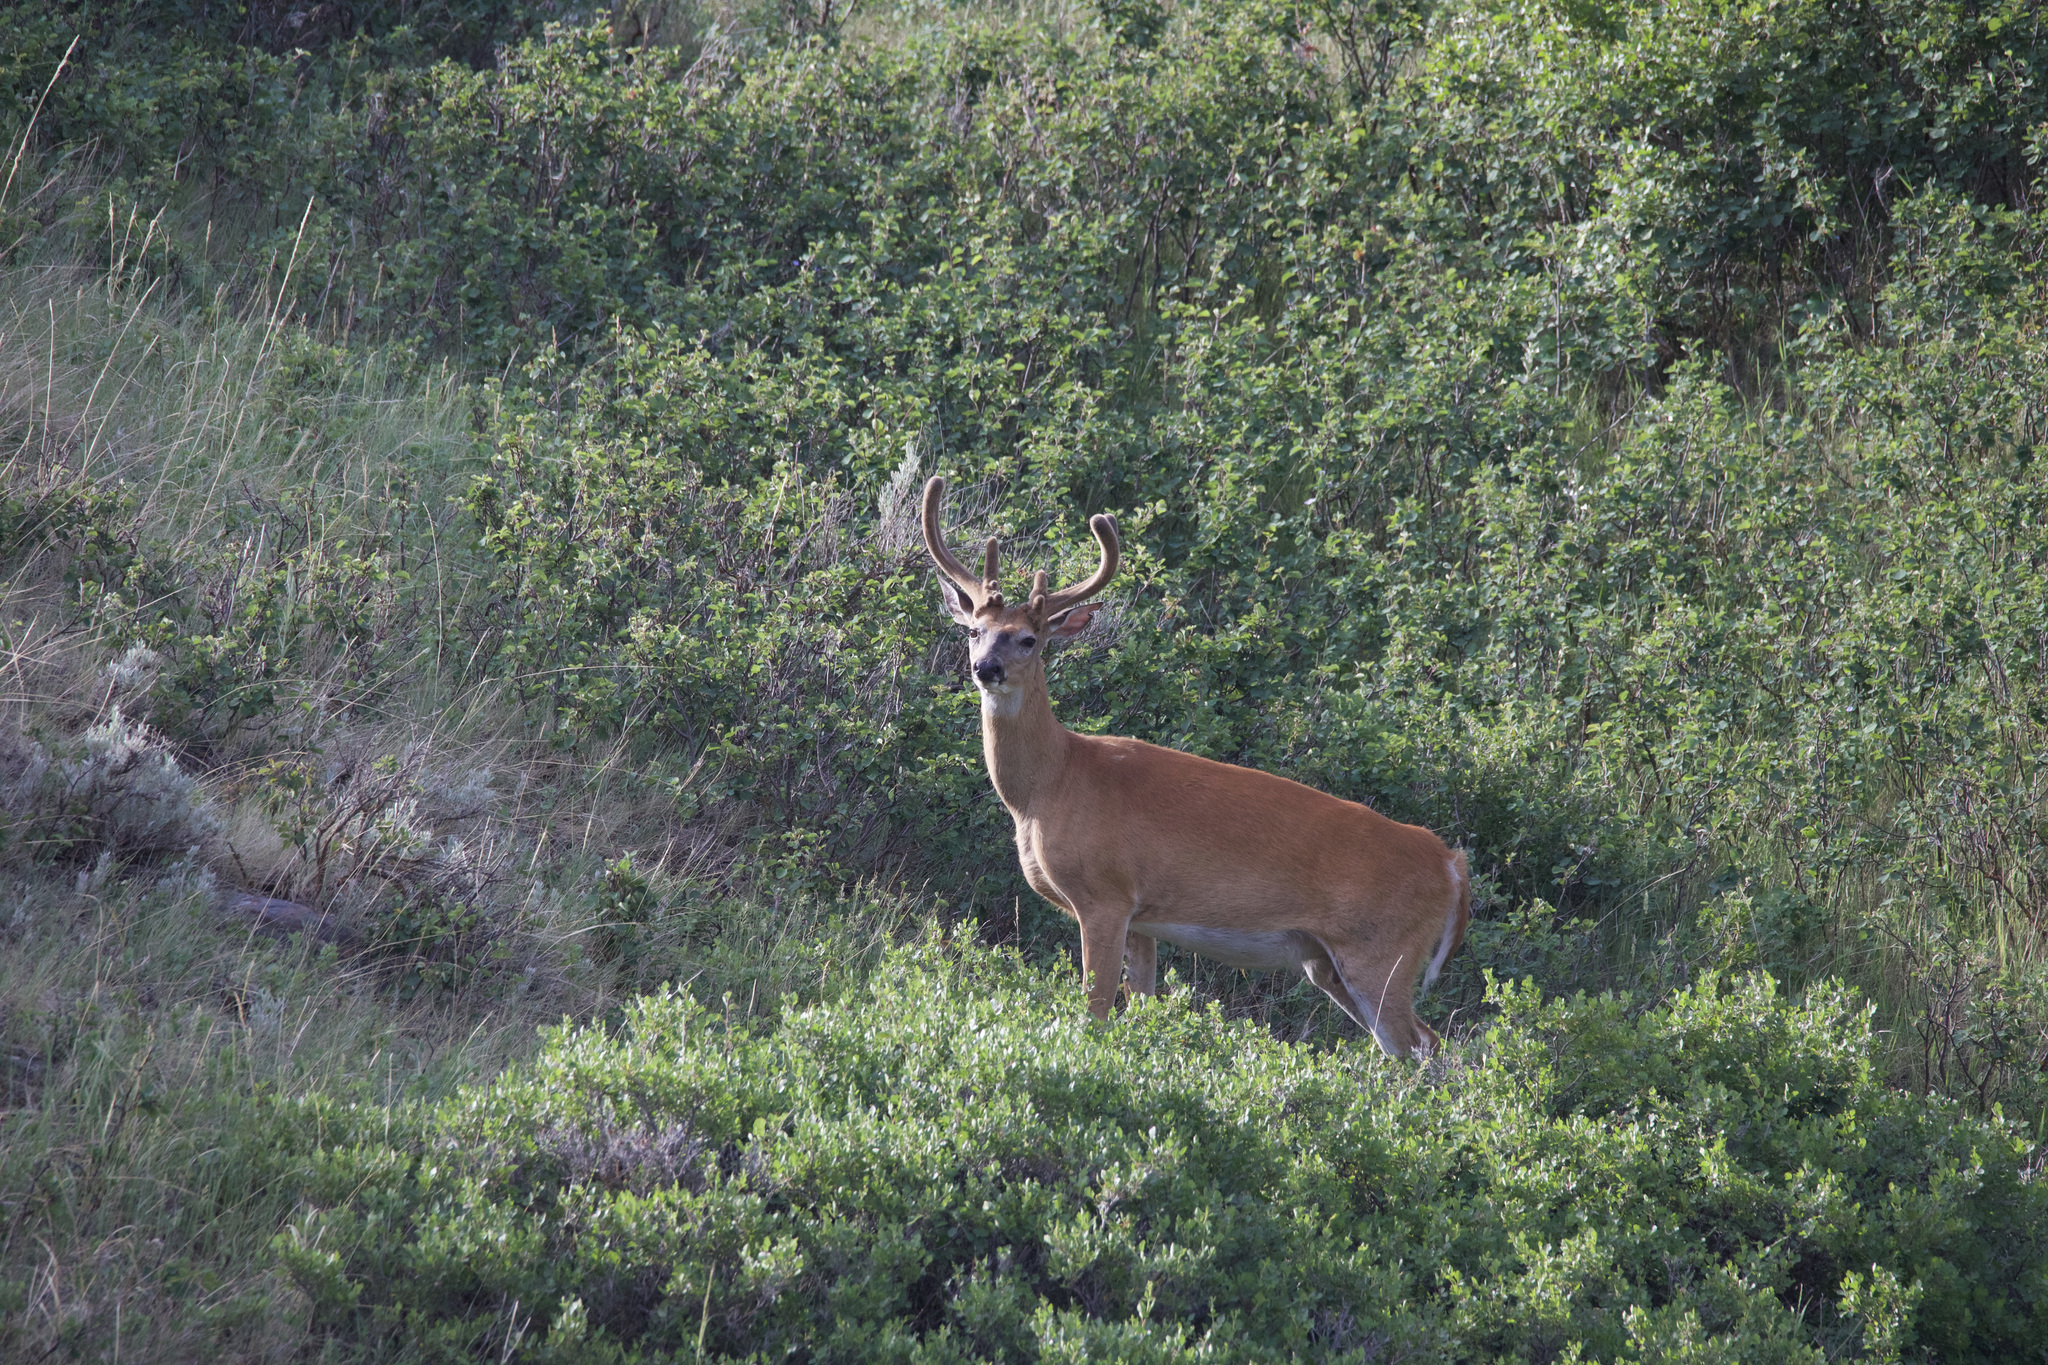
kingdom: Animalia
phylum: Chordata
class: Mammalia
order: Artiodactyla
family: Cervidae
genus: Odocoileus
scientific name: Odocoileus virginianus
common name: White-tailed deer
